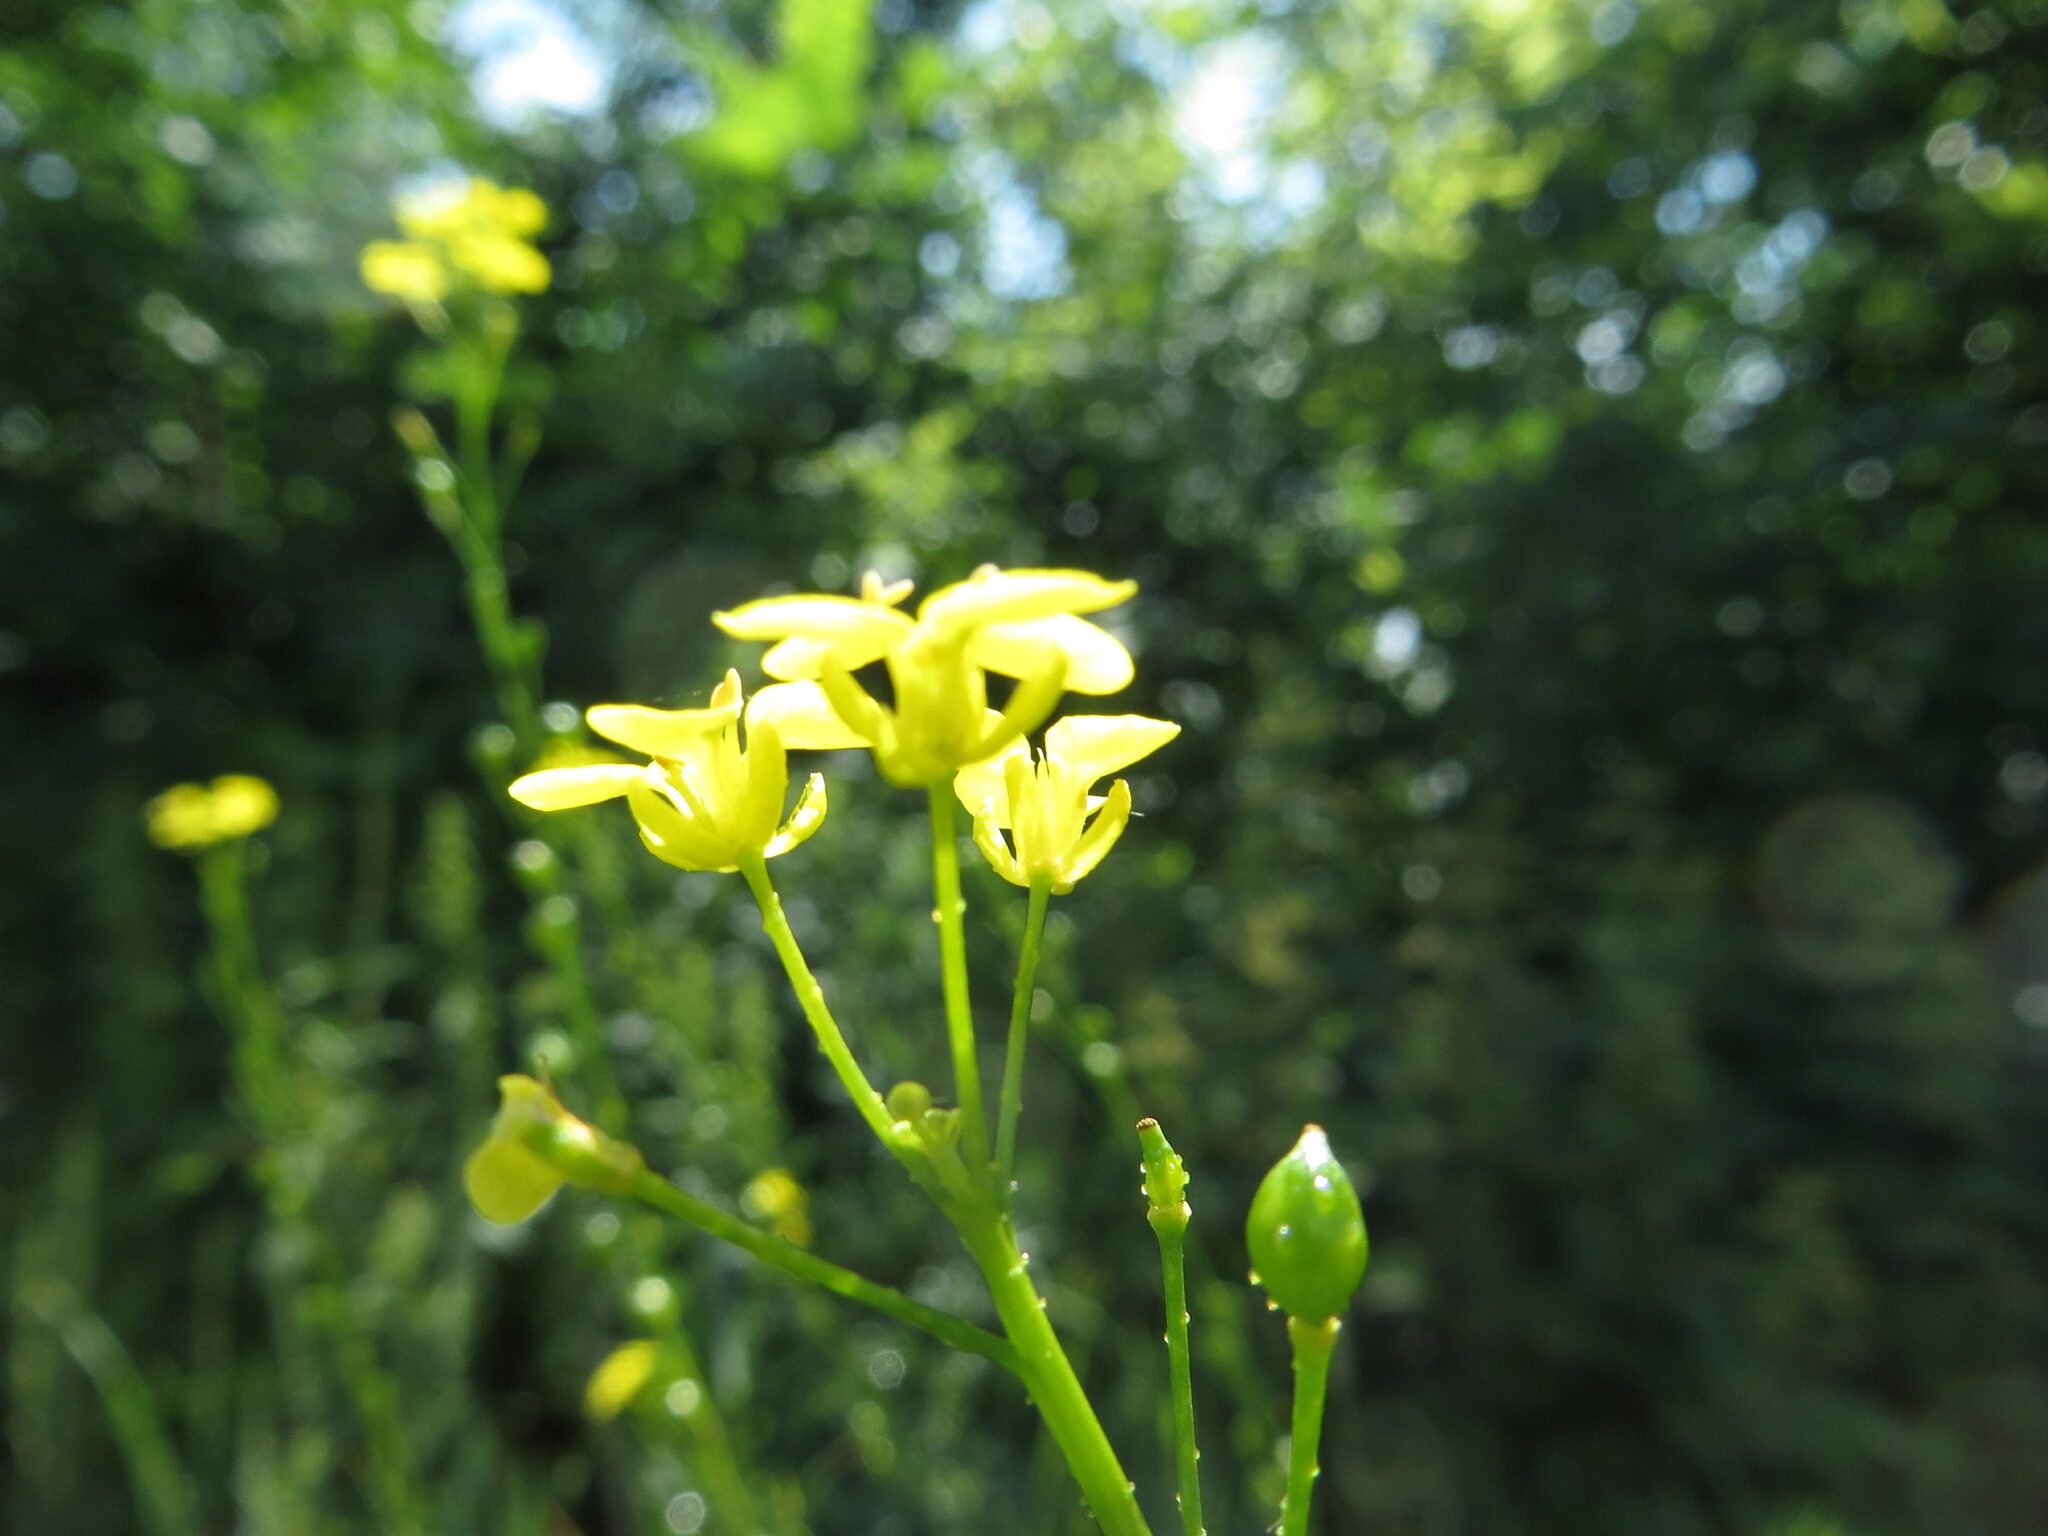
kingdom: Plantae
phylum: Tracheophyta
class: Magnoliopsida
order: Brassicales
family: Brassicaceae
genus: Bunias
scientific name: Bunias orientalis
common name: Warty-cabbage
